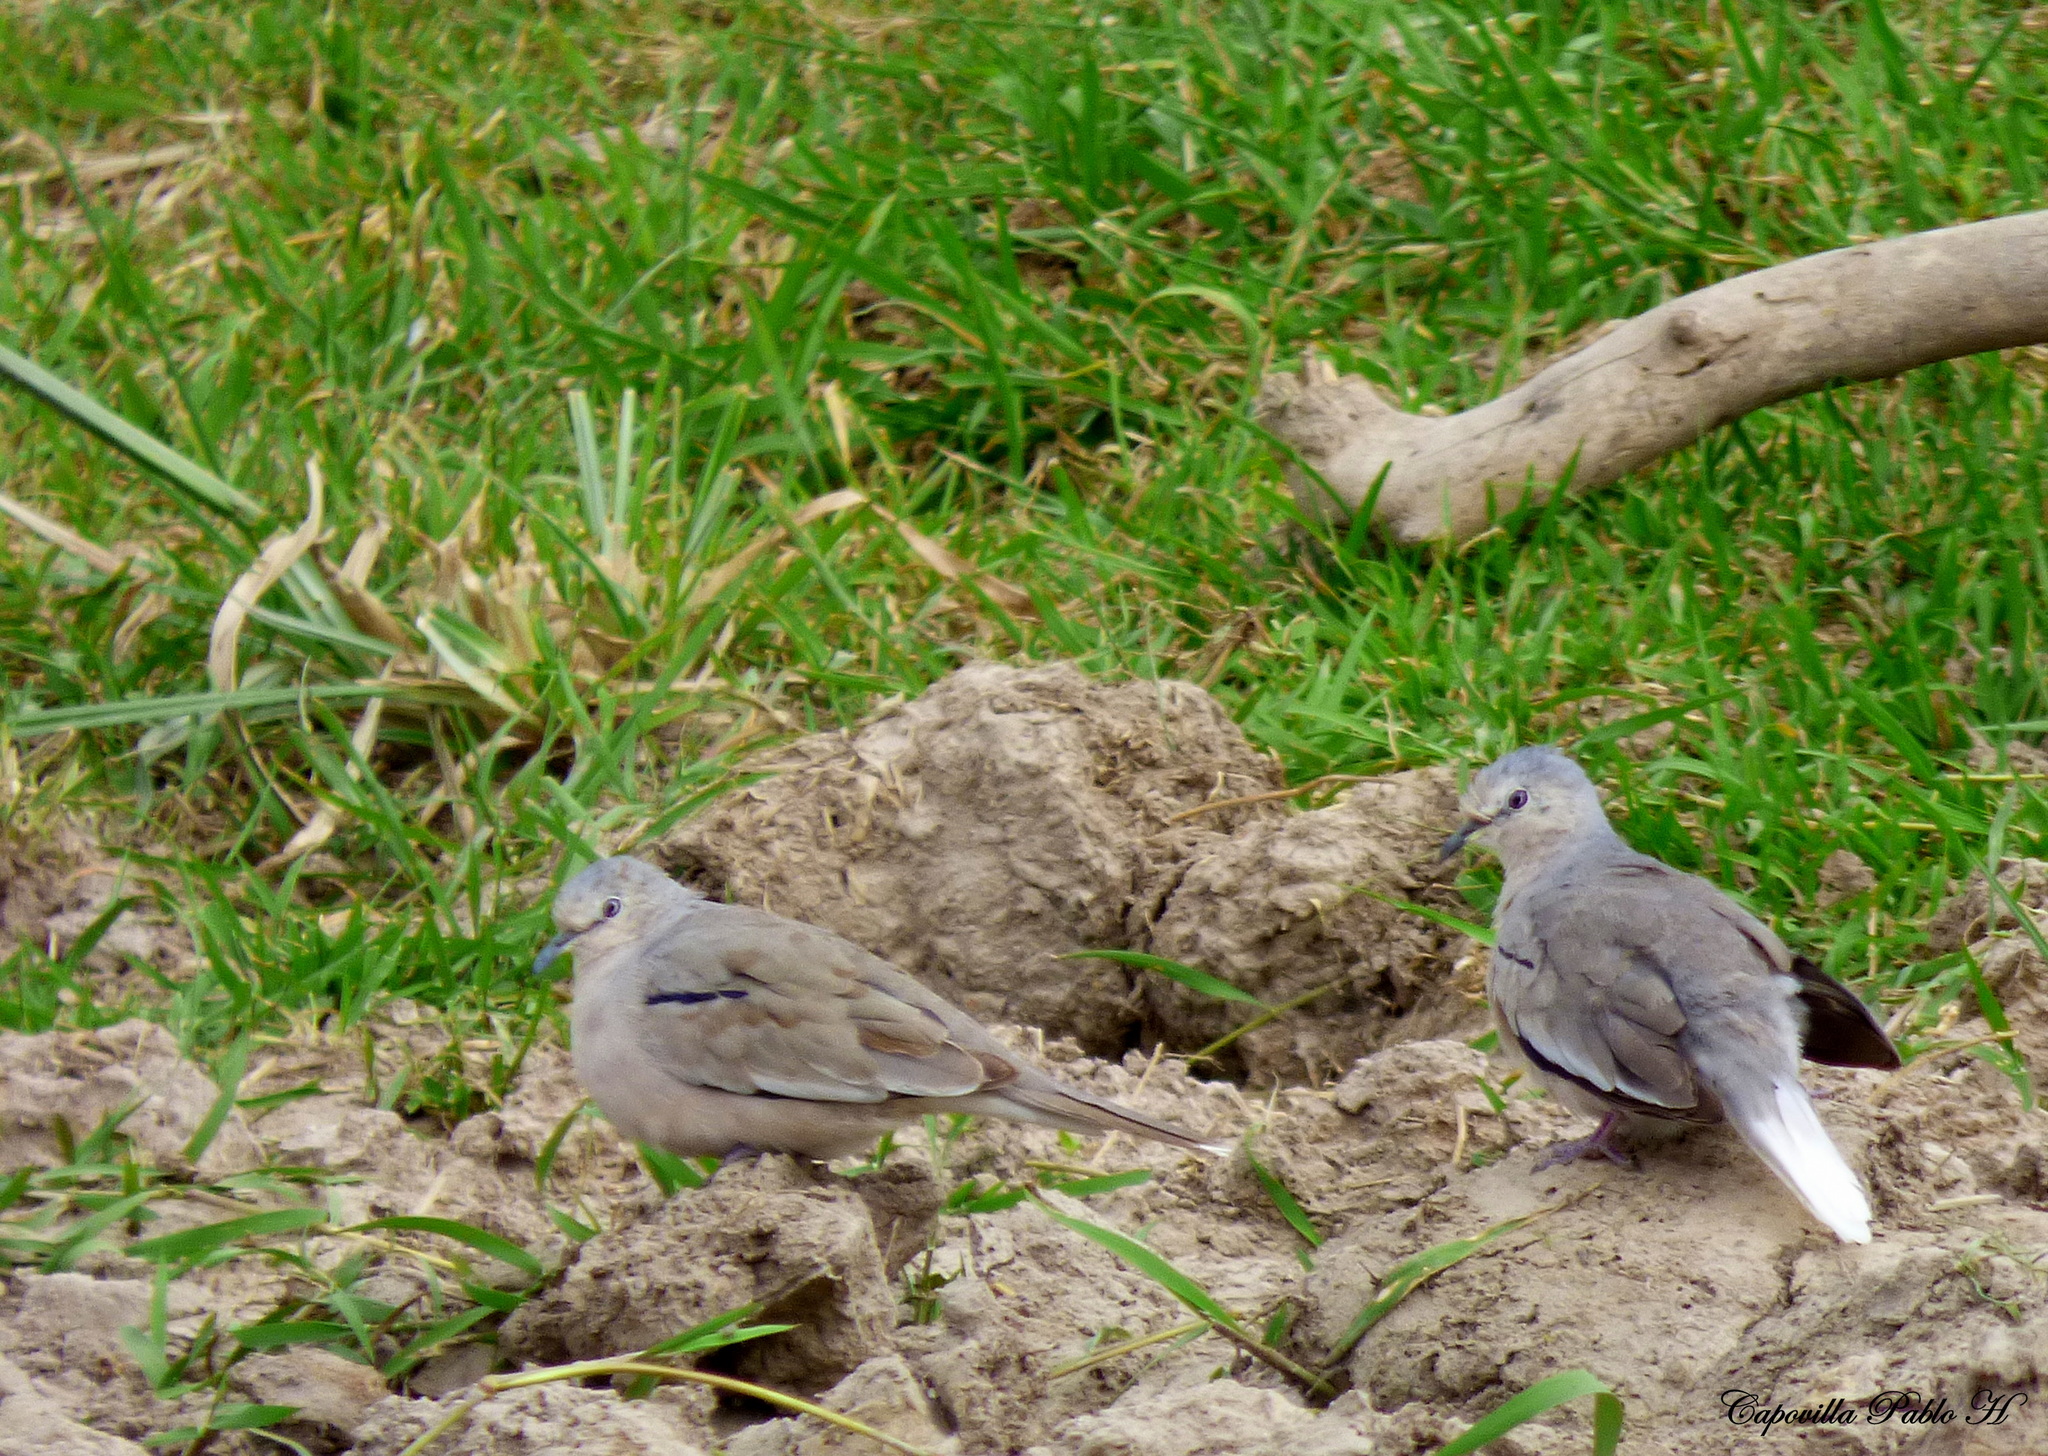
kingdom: Animalia
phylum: Chordata
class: Aves
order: Columbiformes
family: Columbidae
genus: Columbina
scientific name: Columbina picui
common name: Picui ground dove
